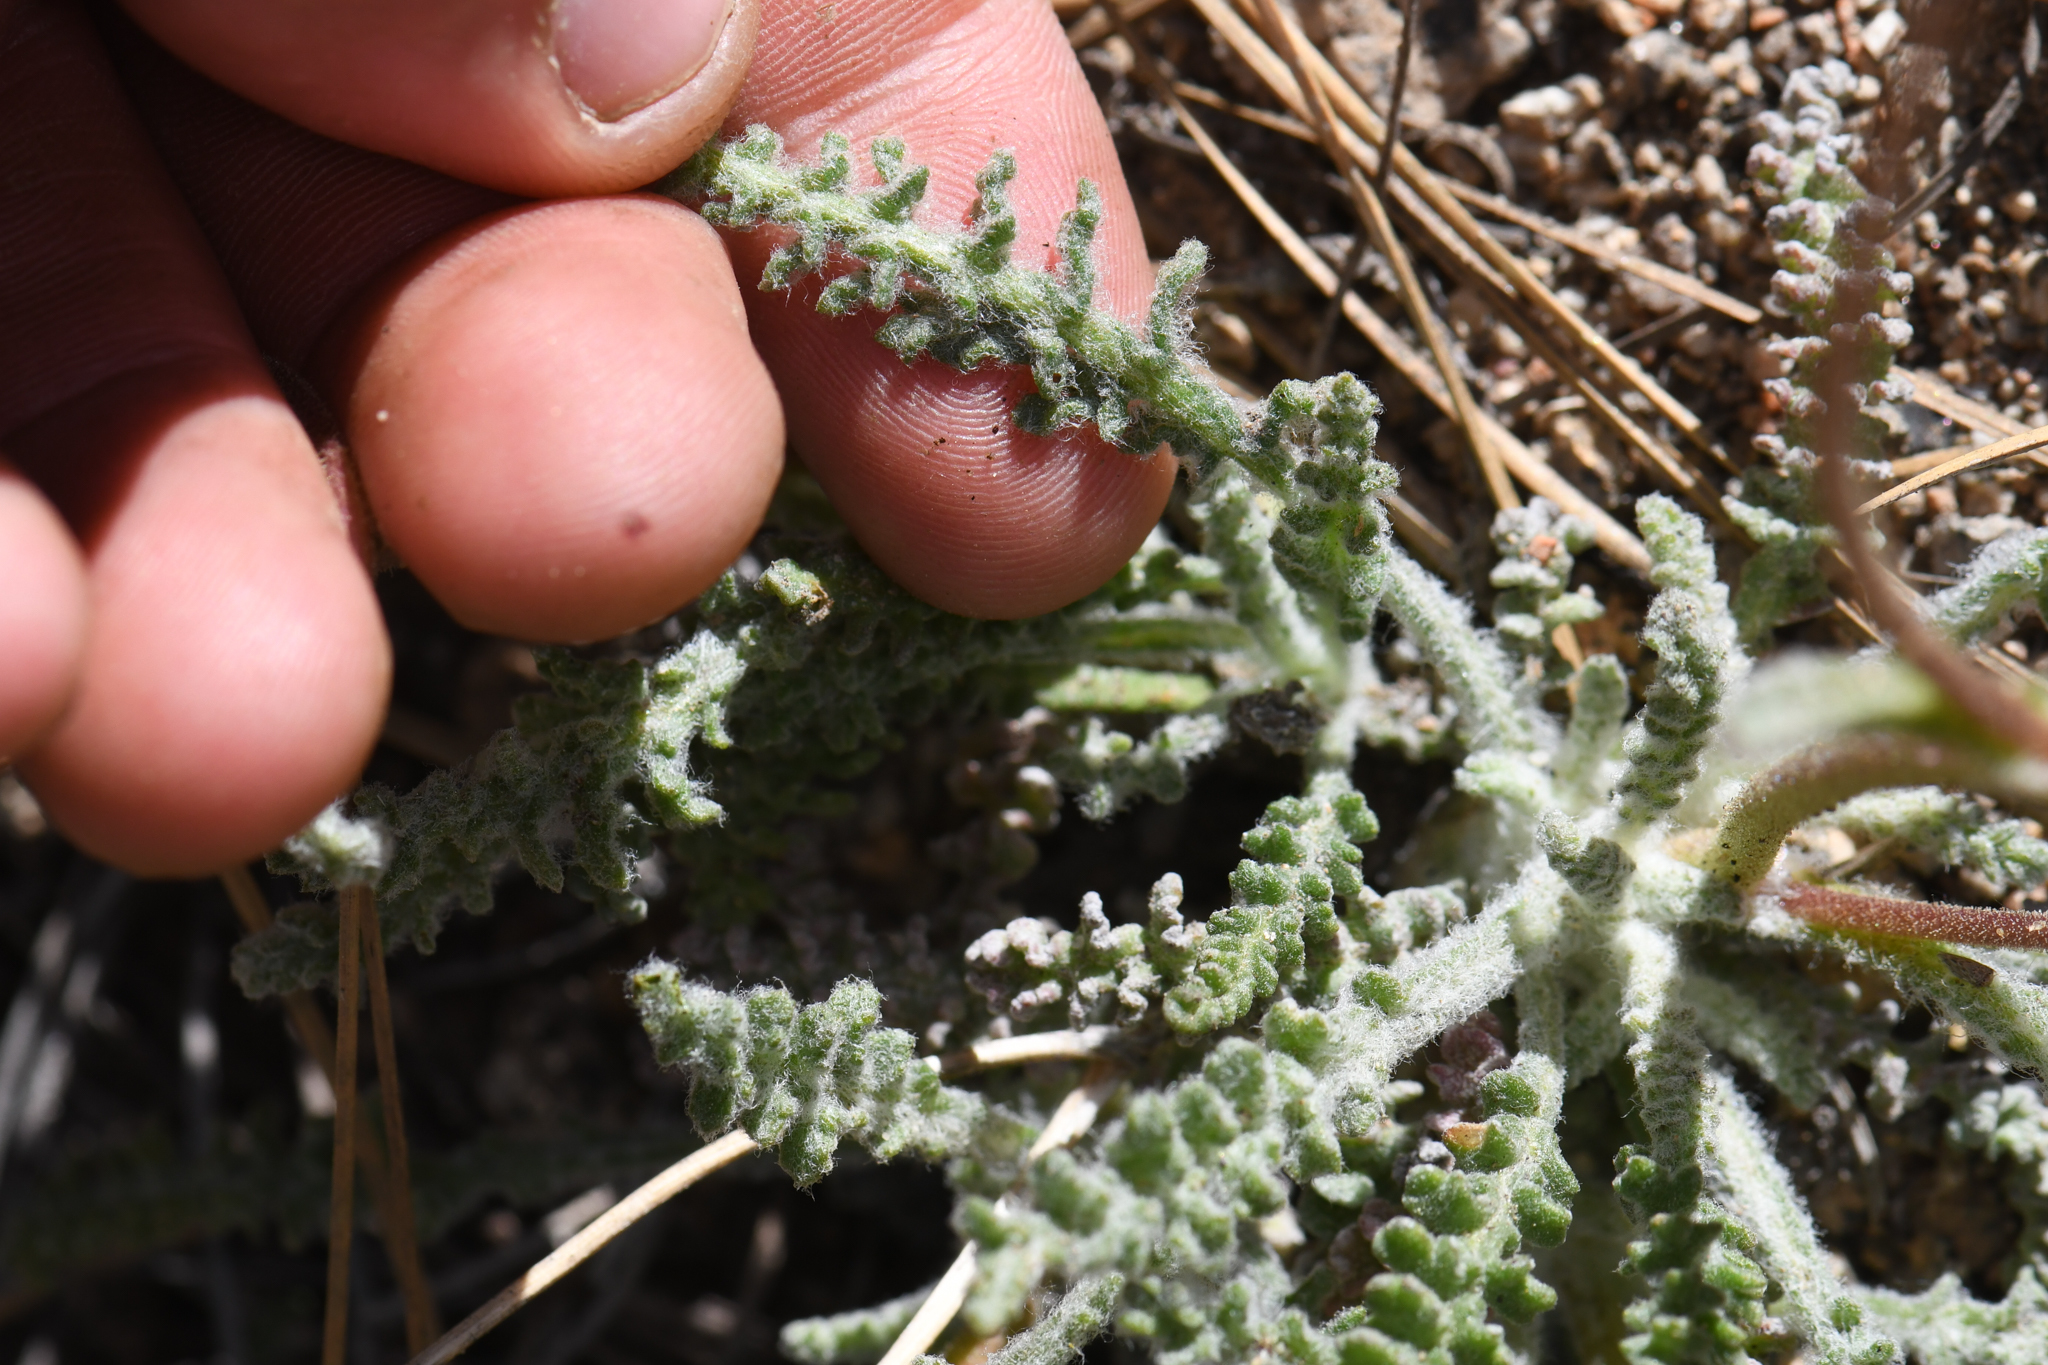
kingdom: Plantae
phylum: Tracheophyta
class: Magnoliopsida
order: Asterales
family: Asteraceae
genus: Chaenactis
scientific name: Chaenactis santolinoides
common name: Santolina pincushion
